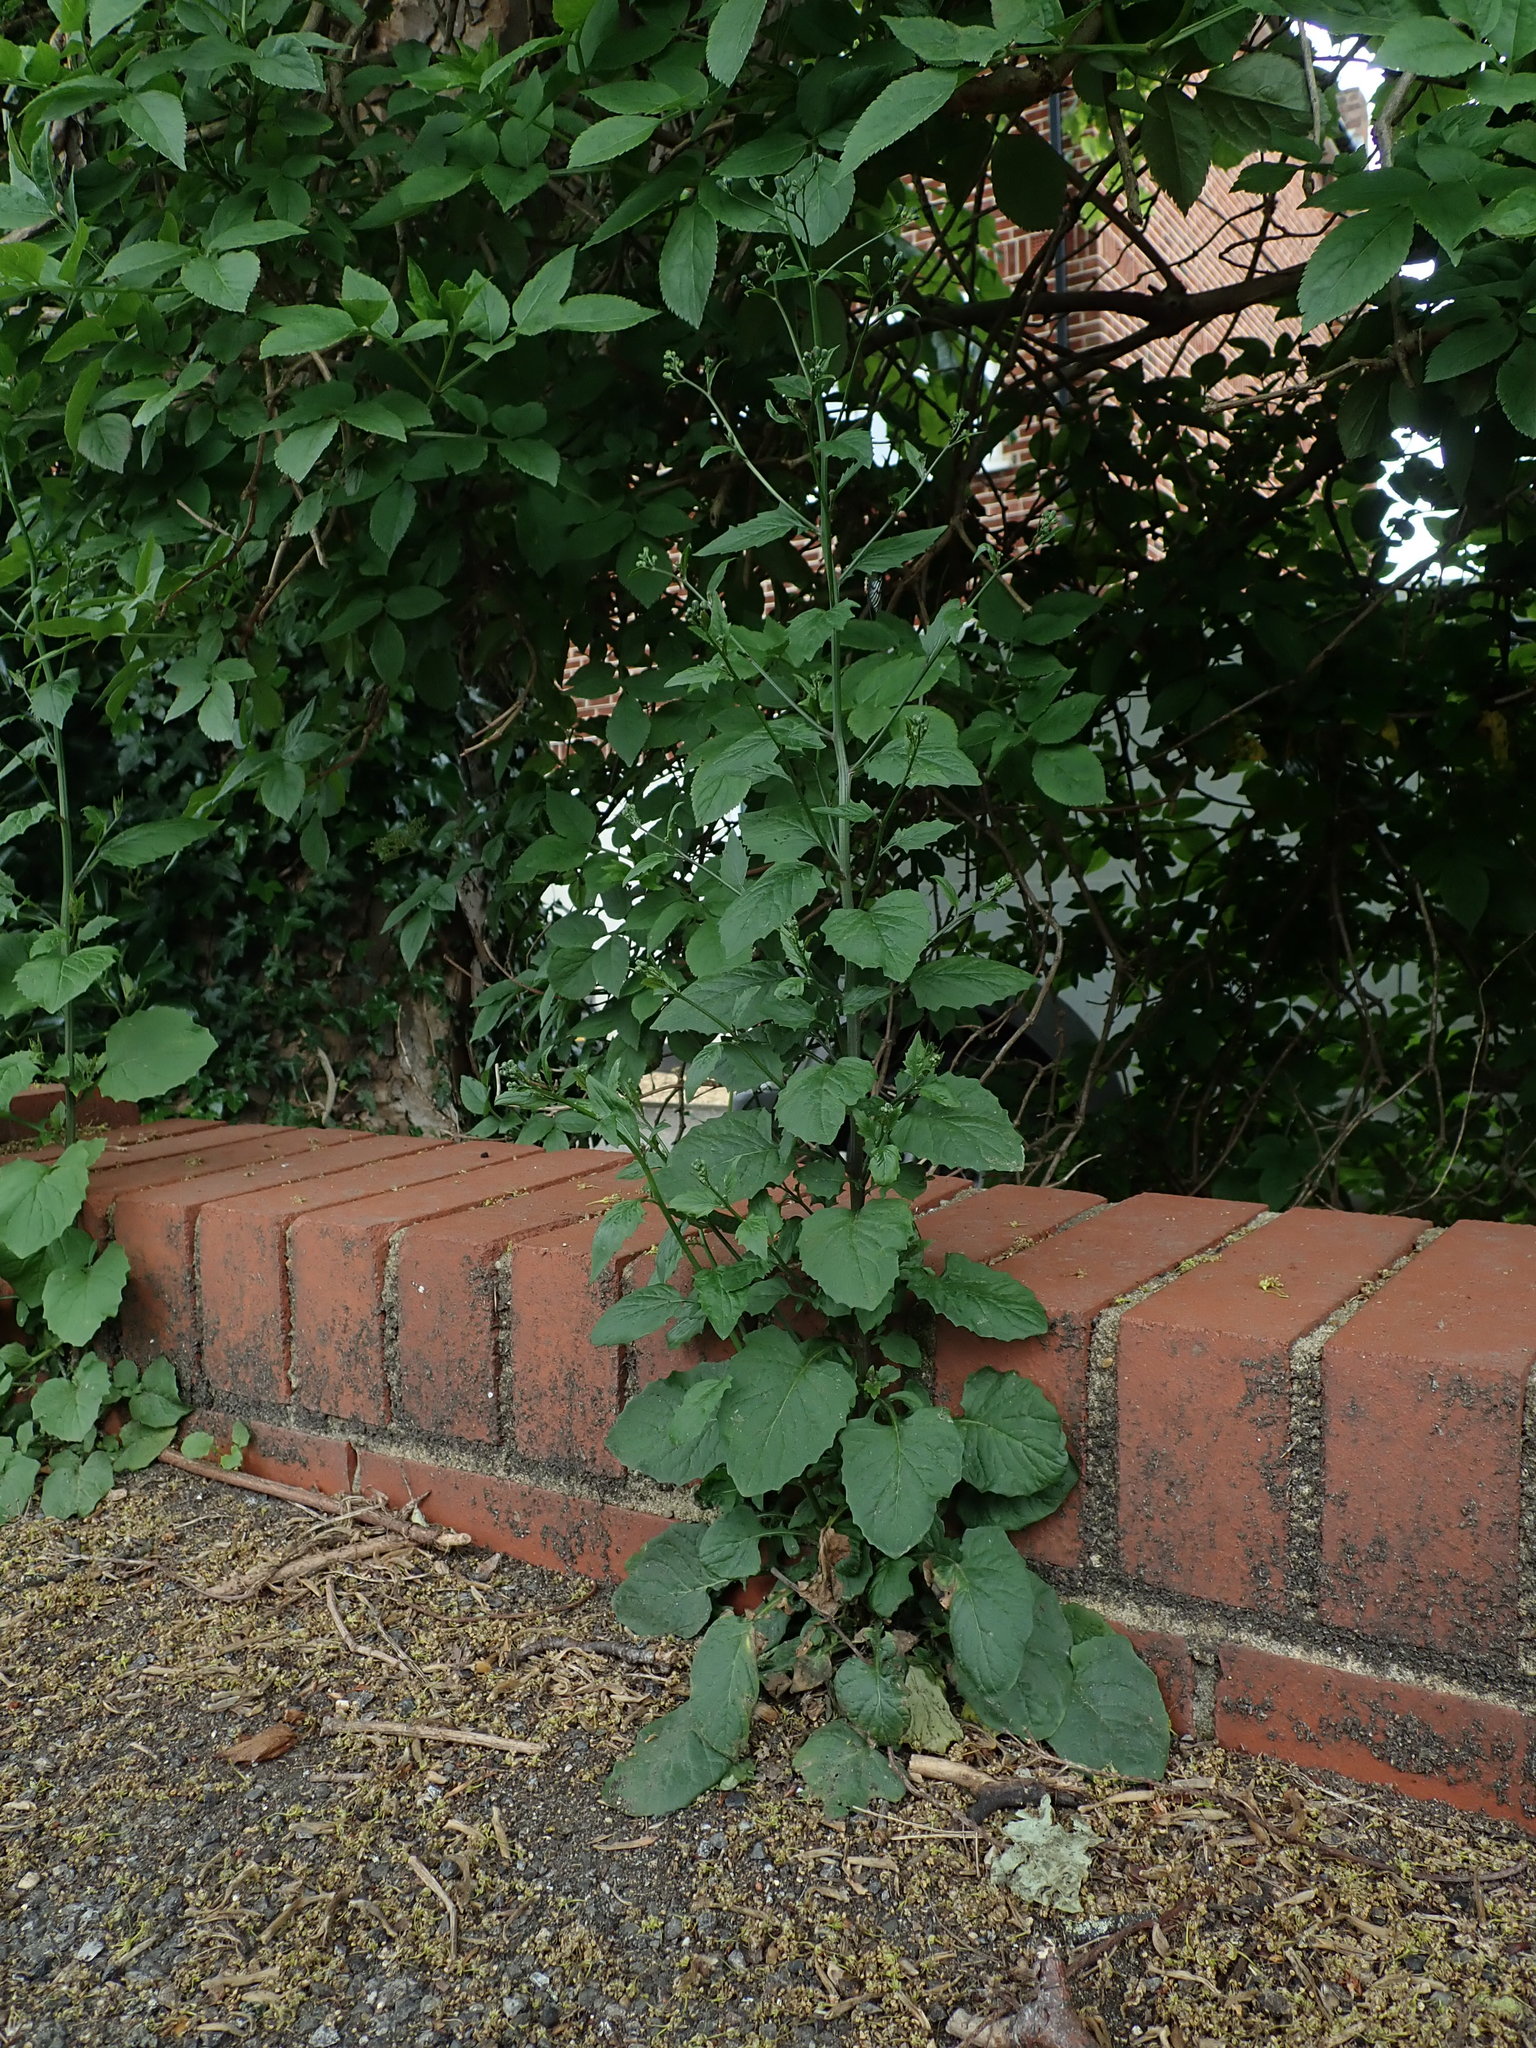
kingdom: Plantae
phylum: Tracheophyta
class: Magnoliopsida
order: Asterales
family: Asteraceae
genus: Lapsana
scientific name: Lapsana communis
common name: Nipplewort
